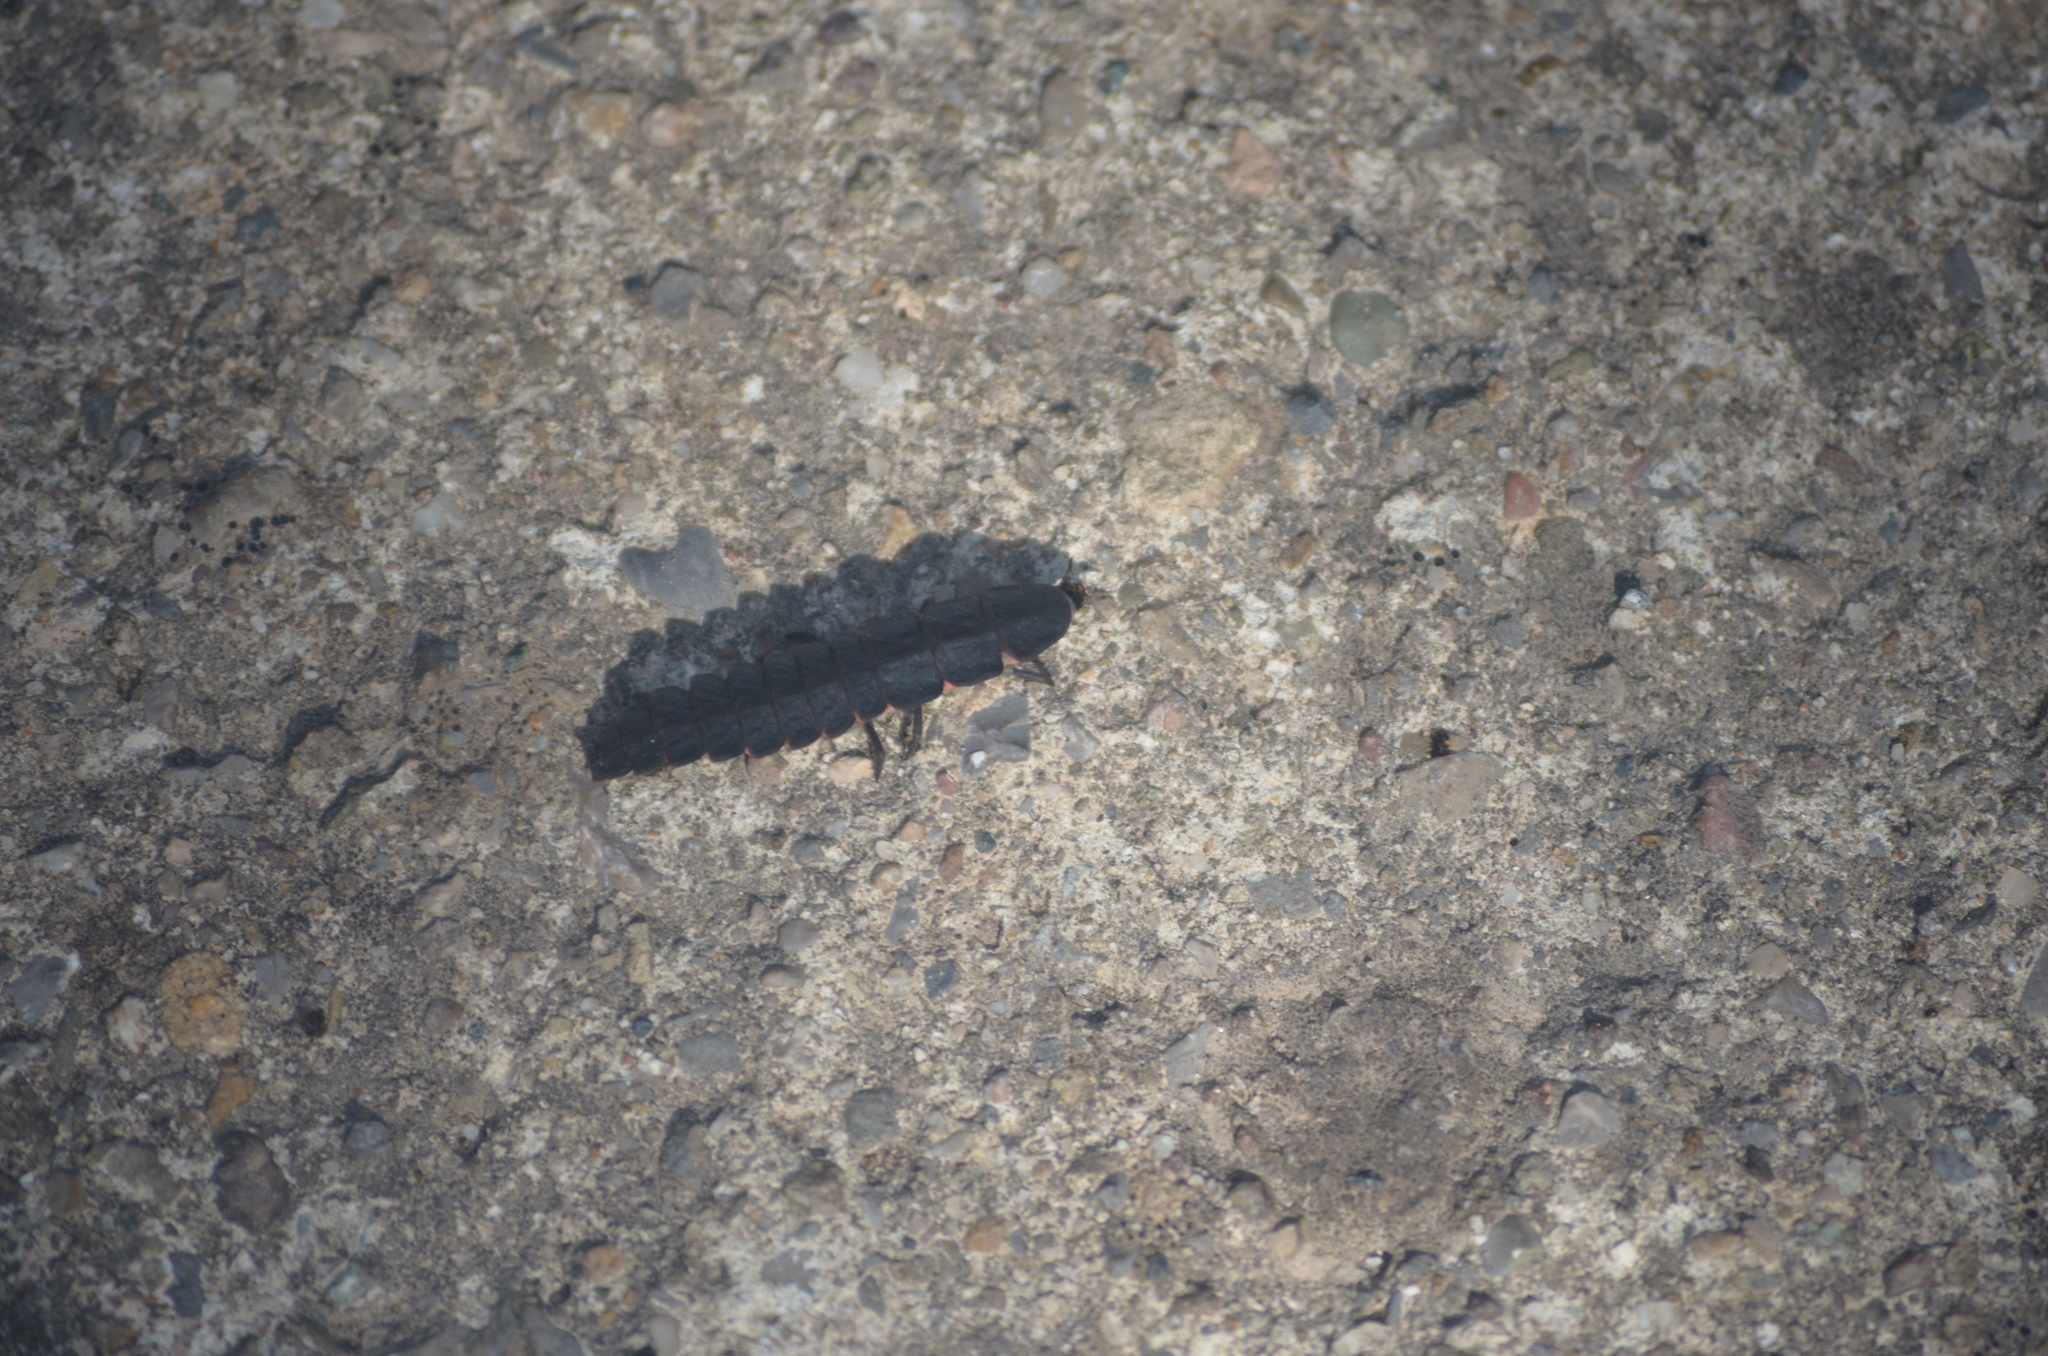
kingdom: Animalia
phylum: Arthropoda
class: Insecta
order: Coleoptera
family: Lampyridae
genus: Nyctophila
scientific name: Nyctophila reichii
